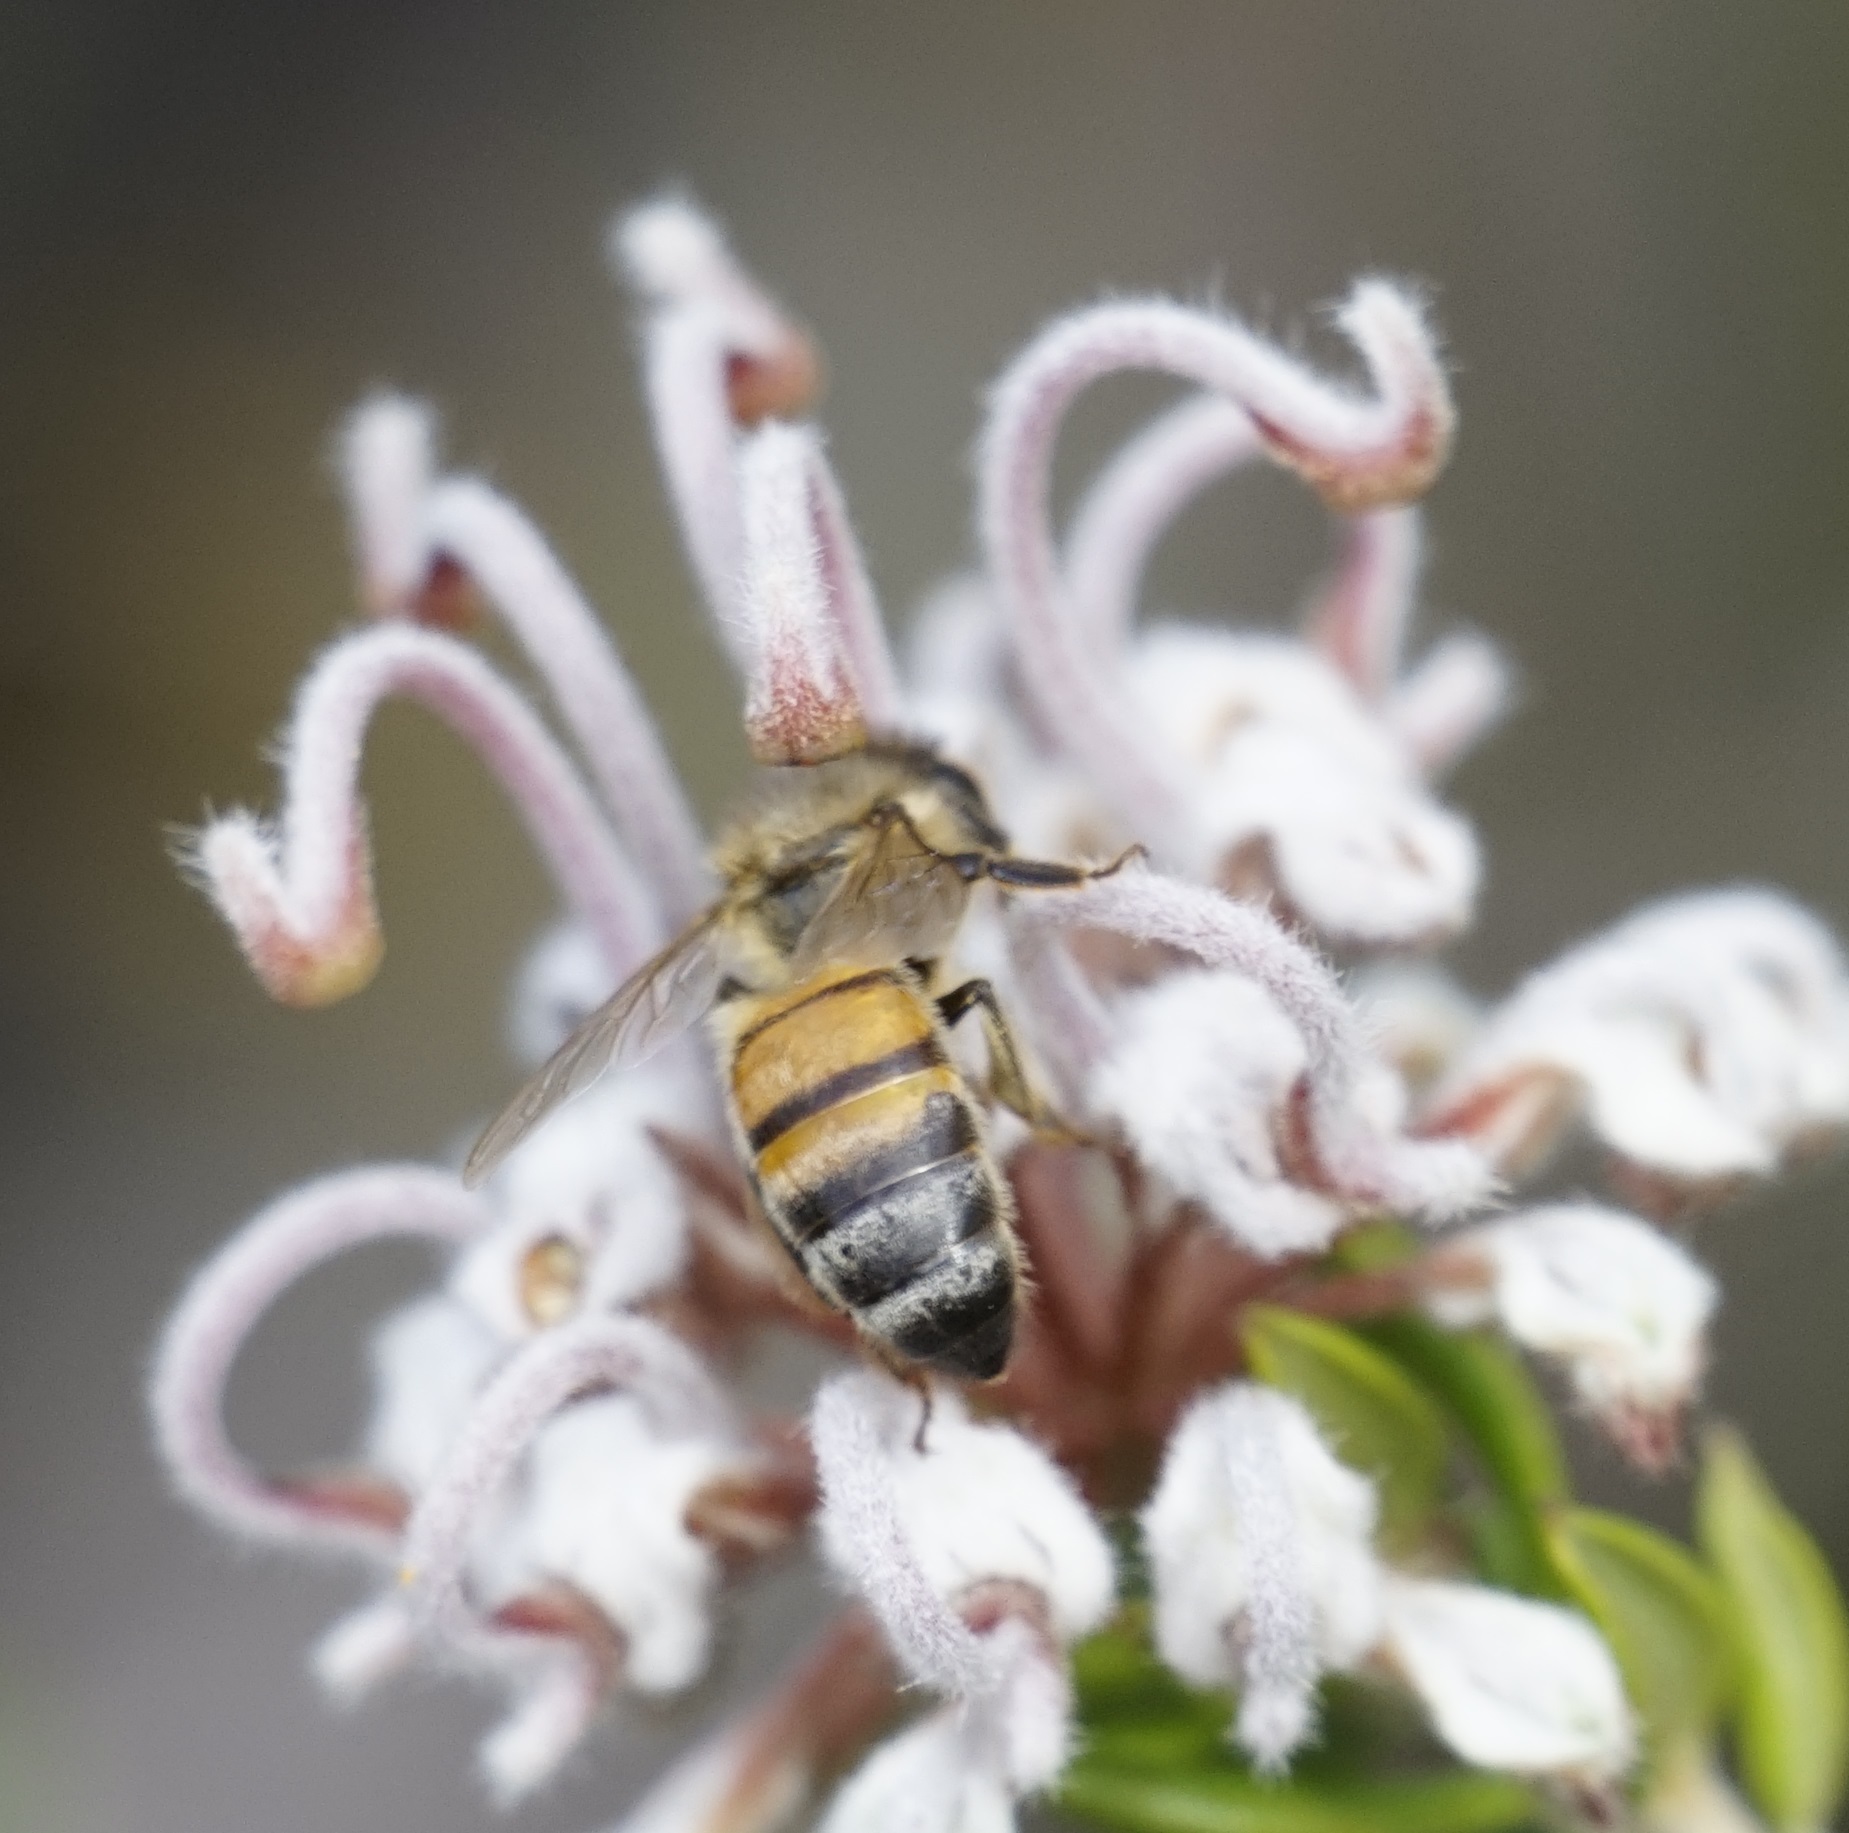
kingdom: Animalia
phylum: Arthropoda
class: Insecta
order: Hymenoptera
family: Apidae
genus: Apis
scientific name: Apis mellifera
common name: Honey bee
